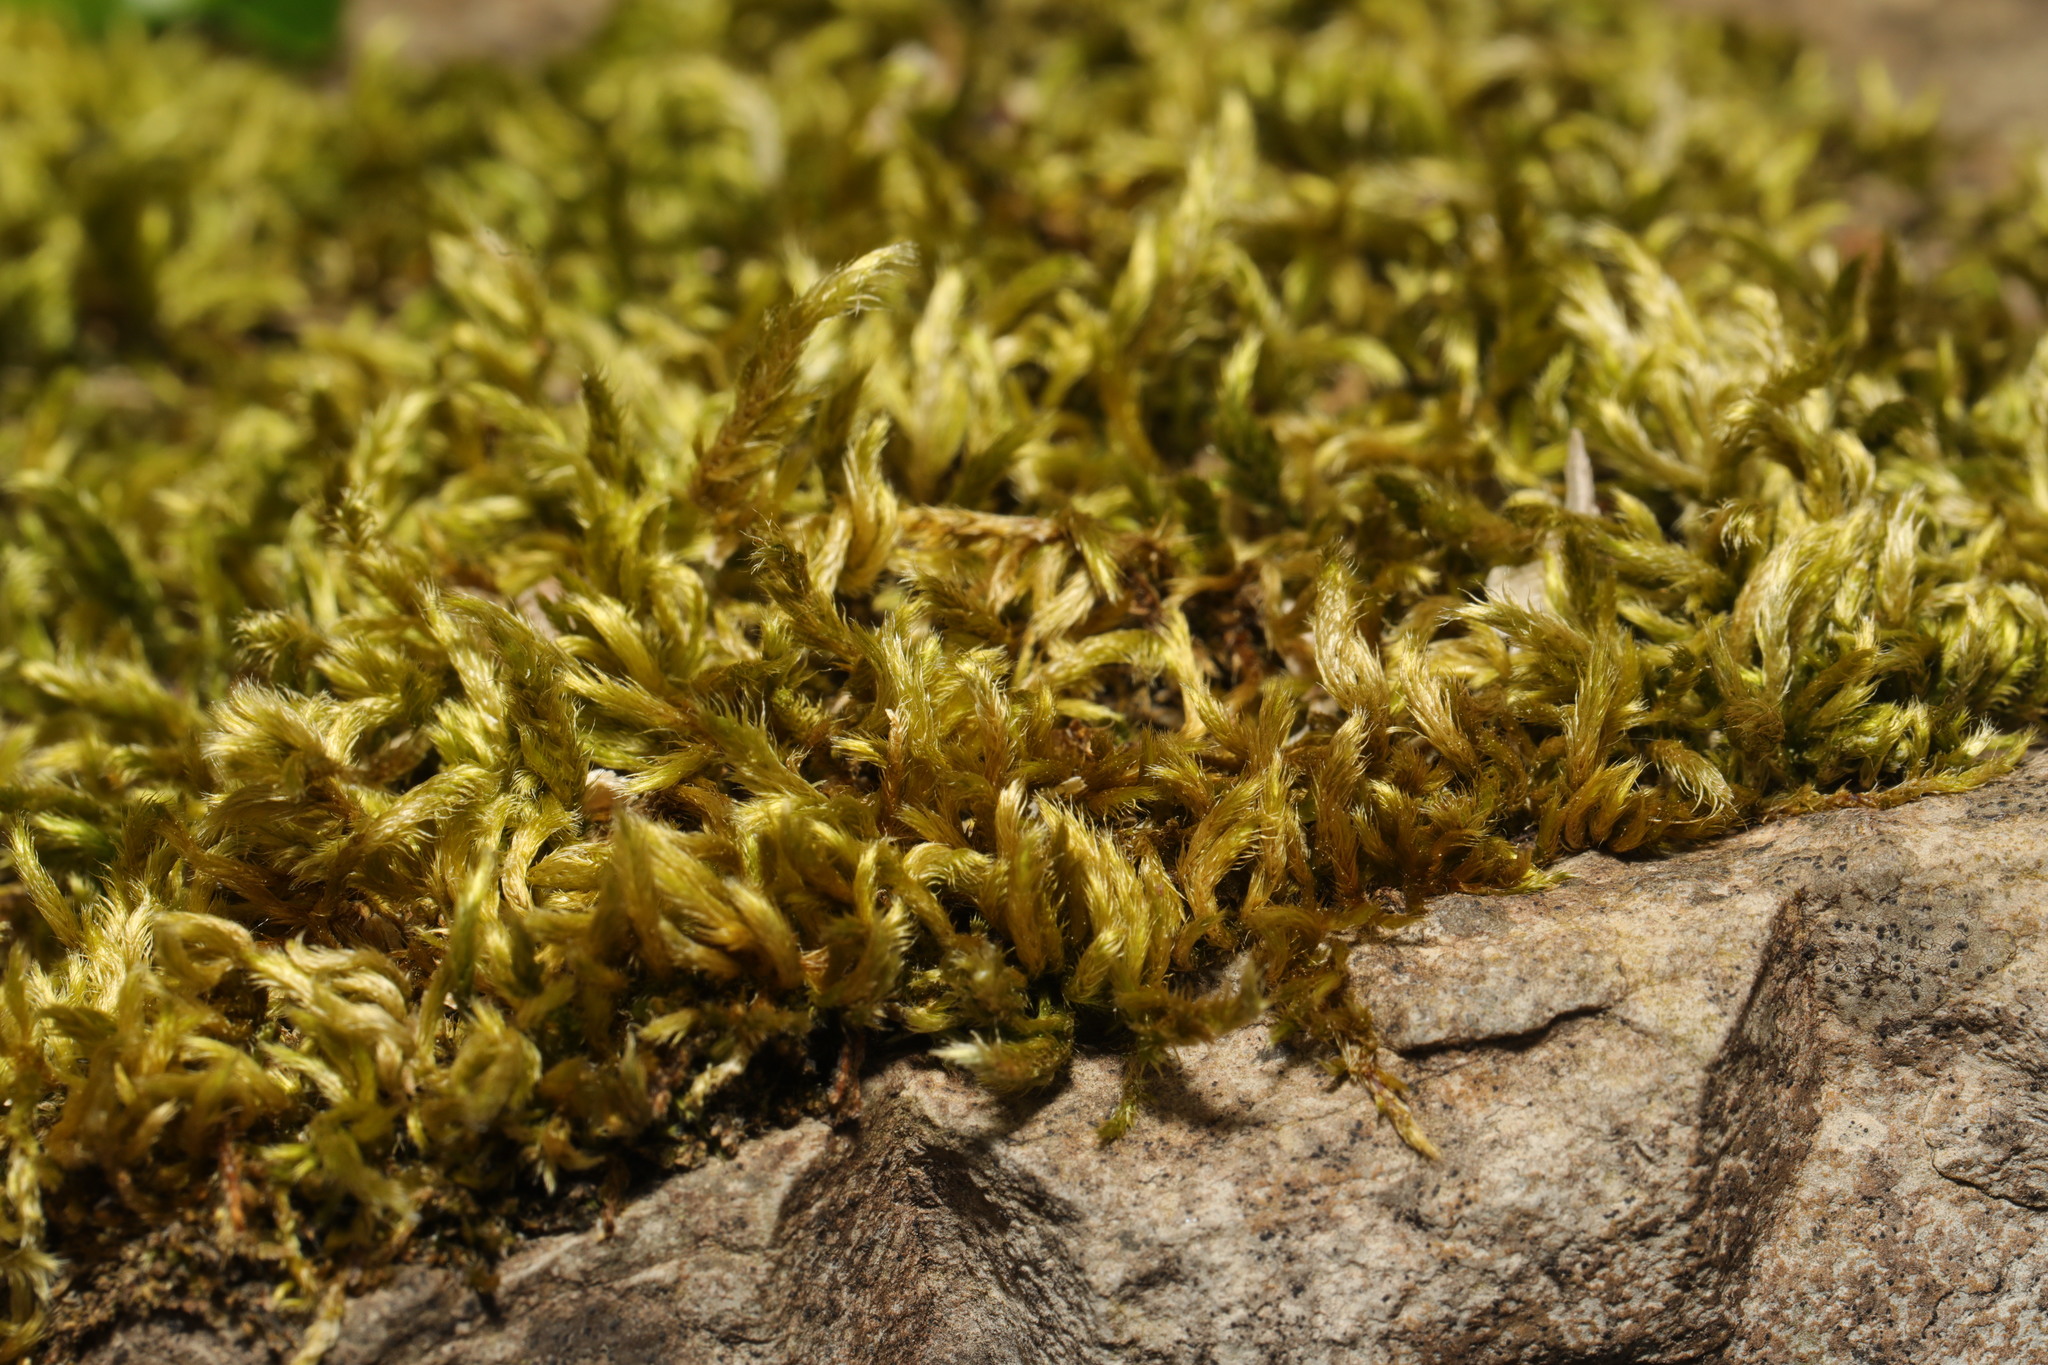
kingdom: Plantae
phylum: Bryophyta
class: Bryopsida
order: Hypnales
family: Brachytheciaceae
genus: Homalothecium
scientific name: Homalothecium sericeum
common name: Silky wall feather-moss
